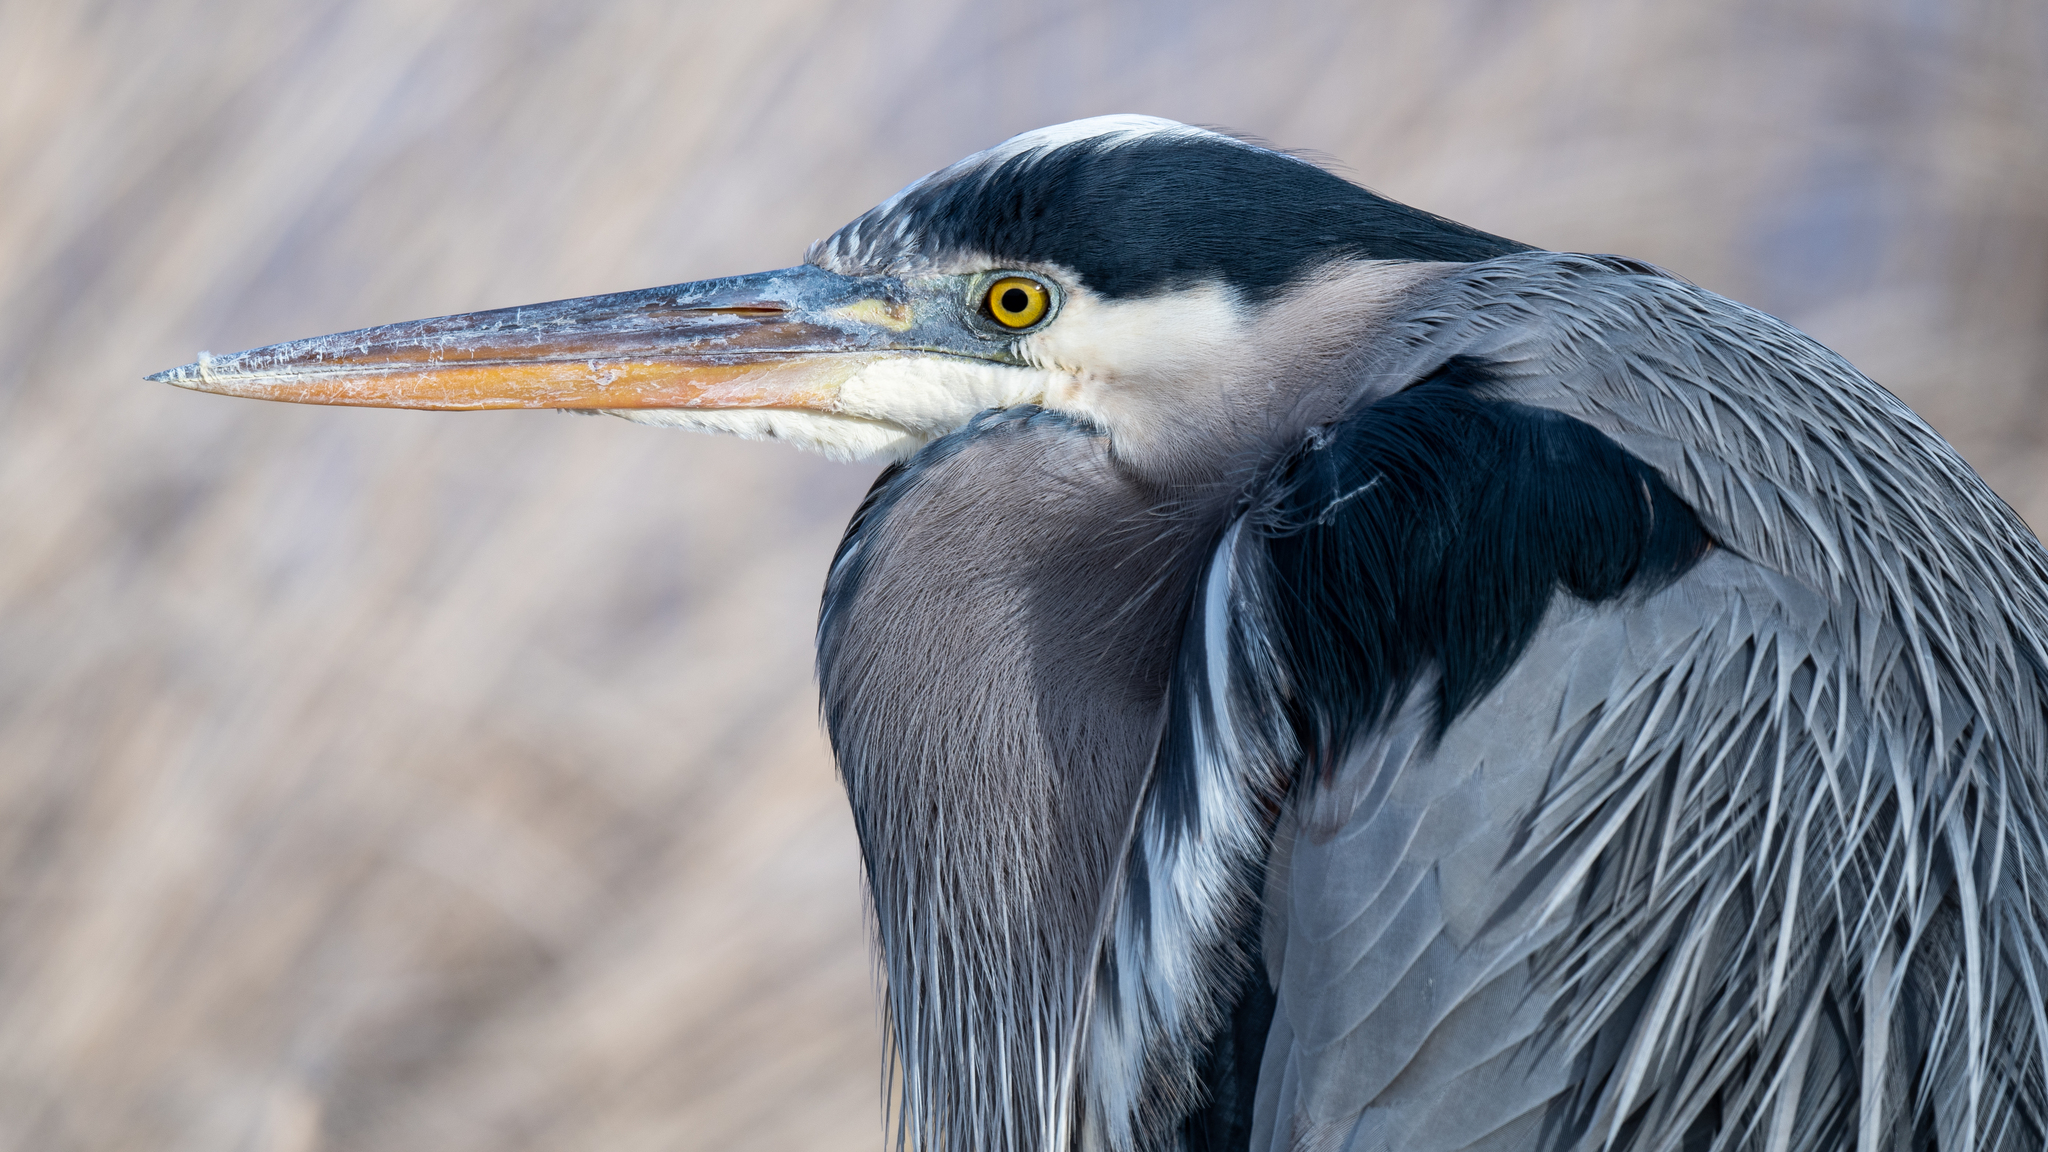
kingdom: Animalia
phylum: Chordata
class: Aves
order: Pelecaniformes
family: Ardeidae
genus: Ardea
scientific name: Ardea herodias
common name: Great blue heron
